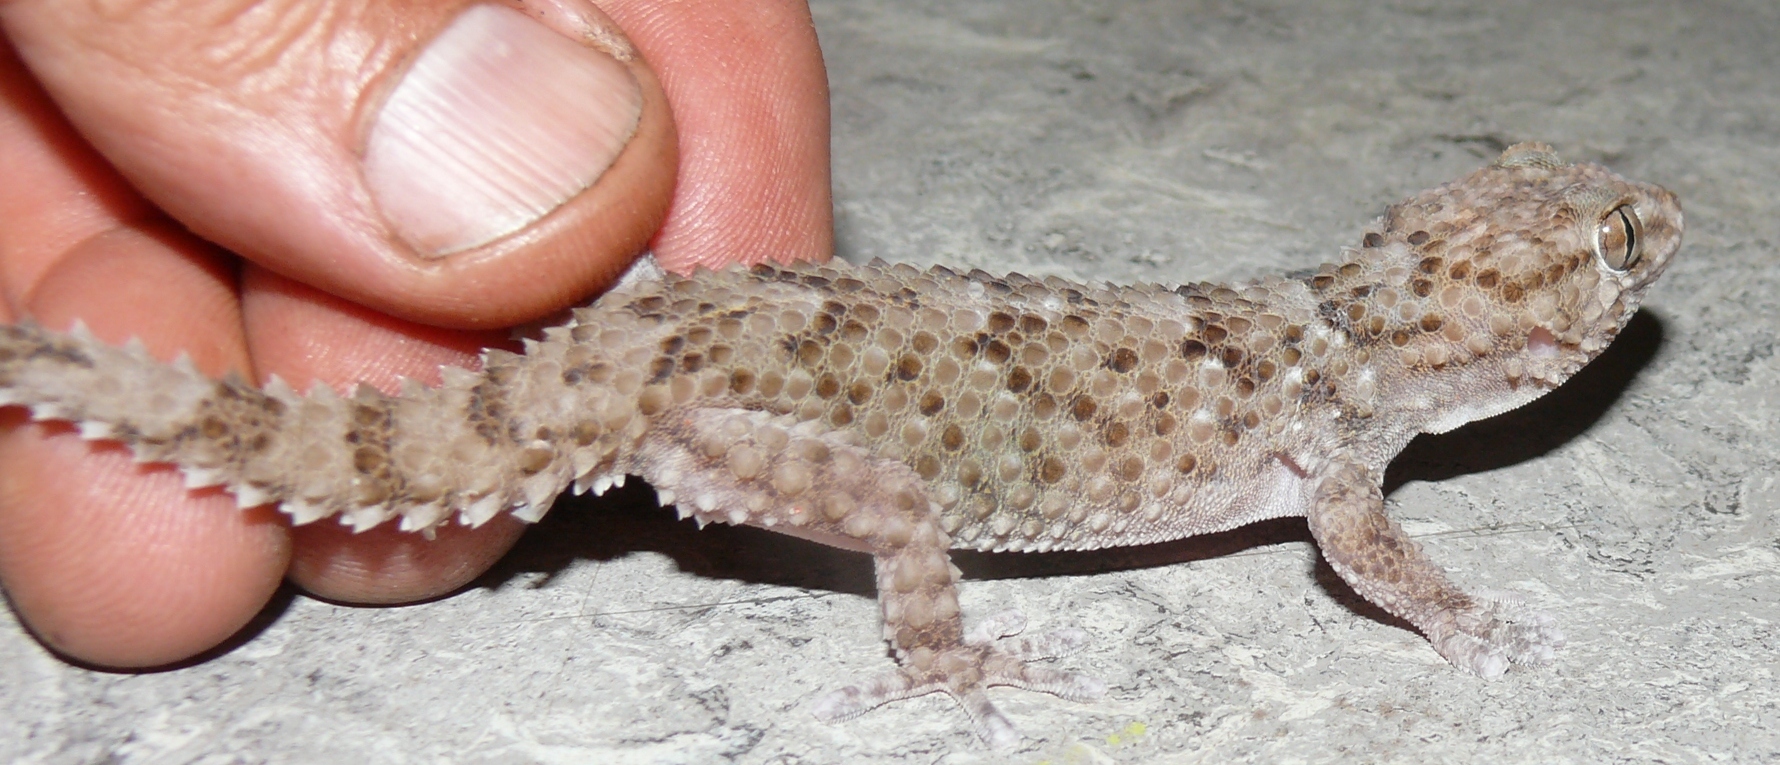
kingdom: Animalia
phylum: Chordata
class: Squamata
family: Gekkonidae
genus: Chondrodactylus
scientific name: Chondrodactylus bibronii
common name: Bibron's gecko
